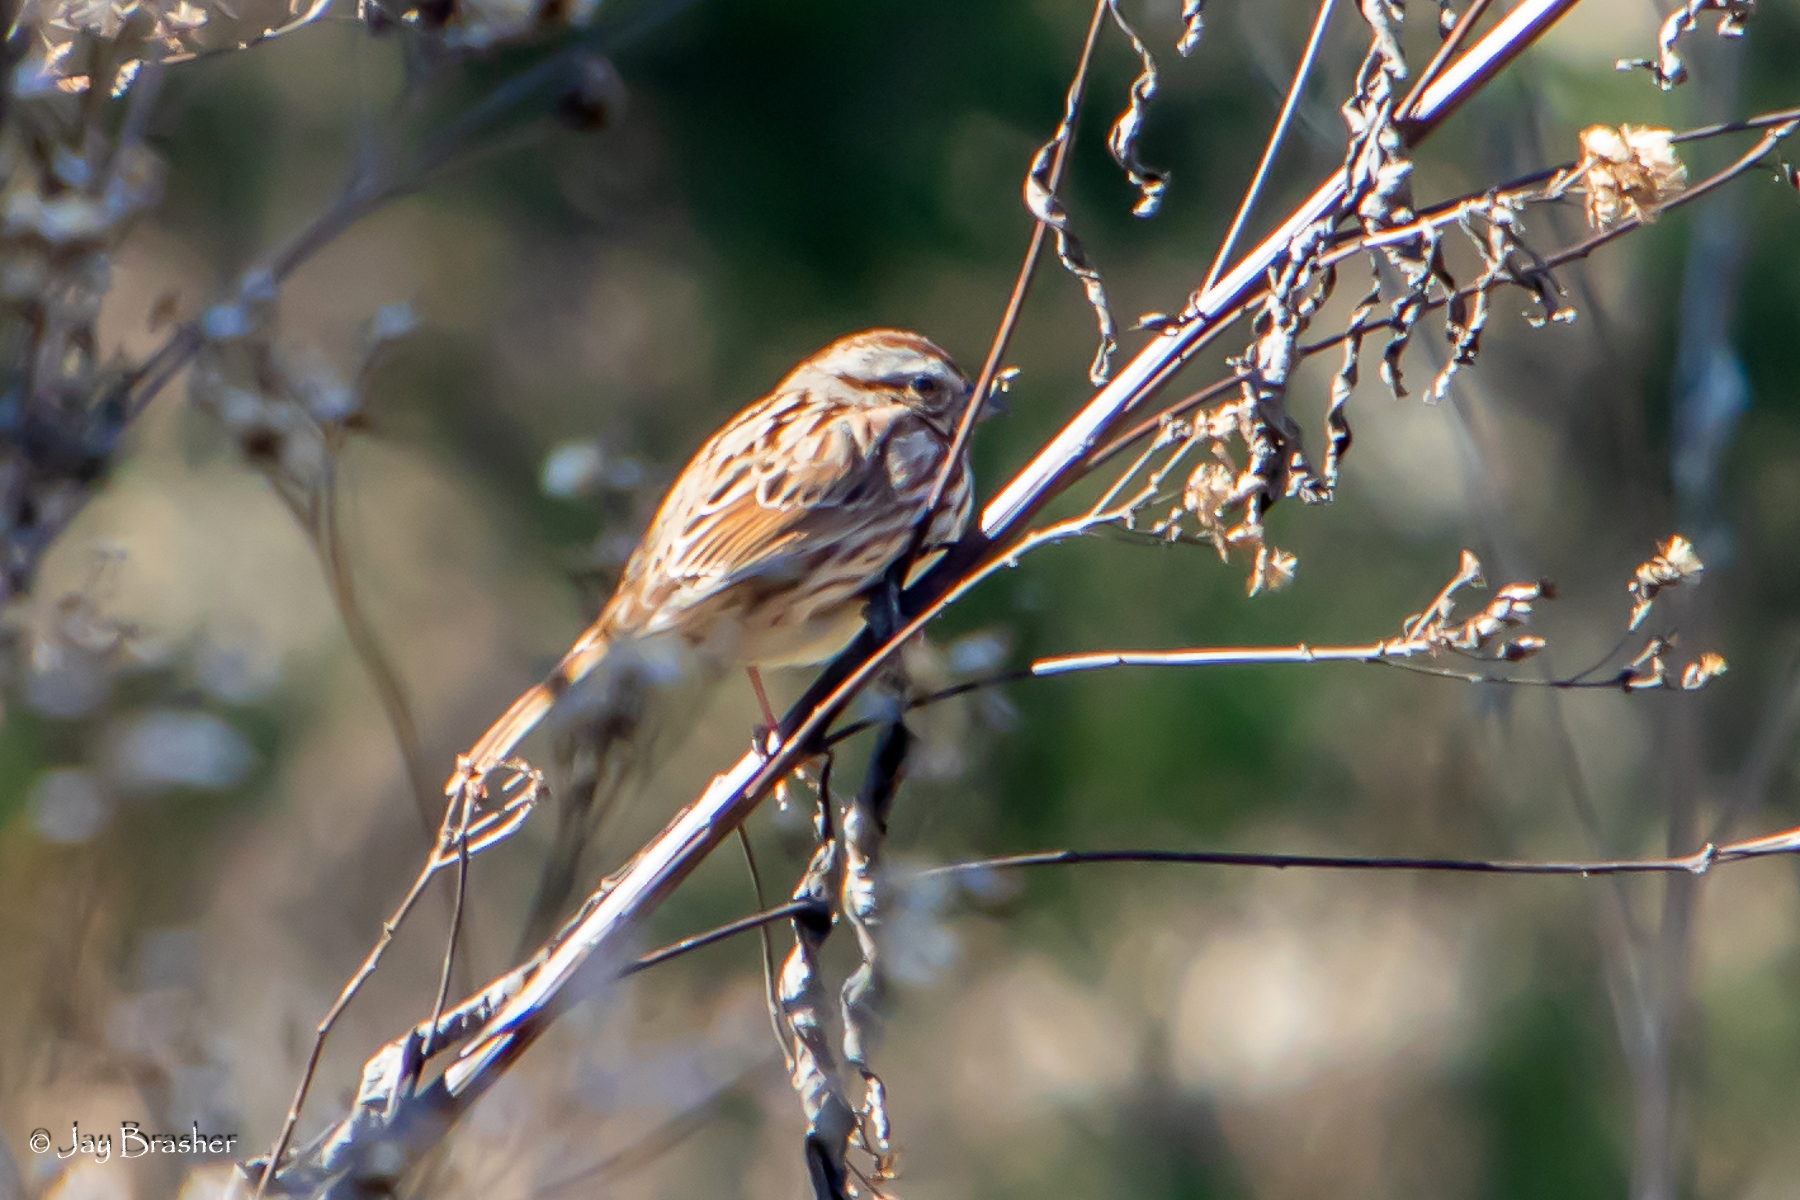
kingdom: Animalia
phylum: Chordata
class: Aves
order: Passeriformes
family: Passerellidae
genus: Melospiza
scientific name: Melospiza melodia
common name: Song sparrow
